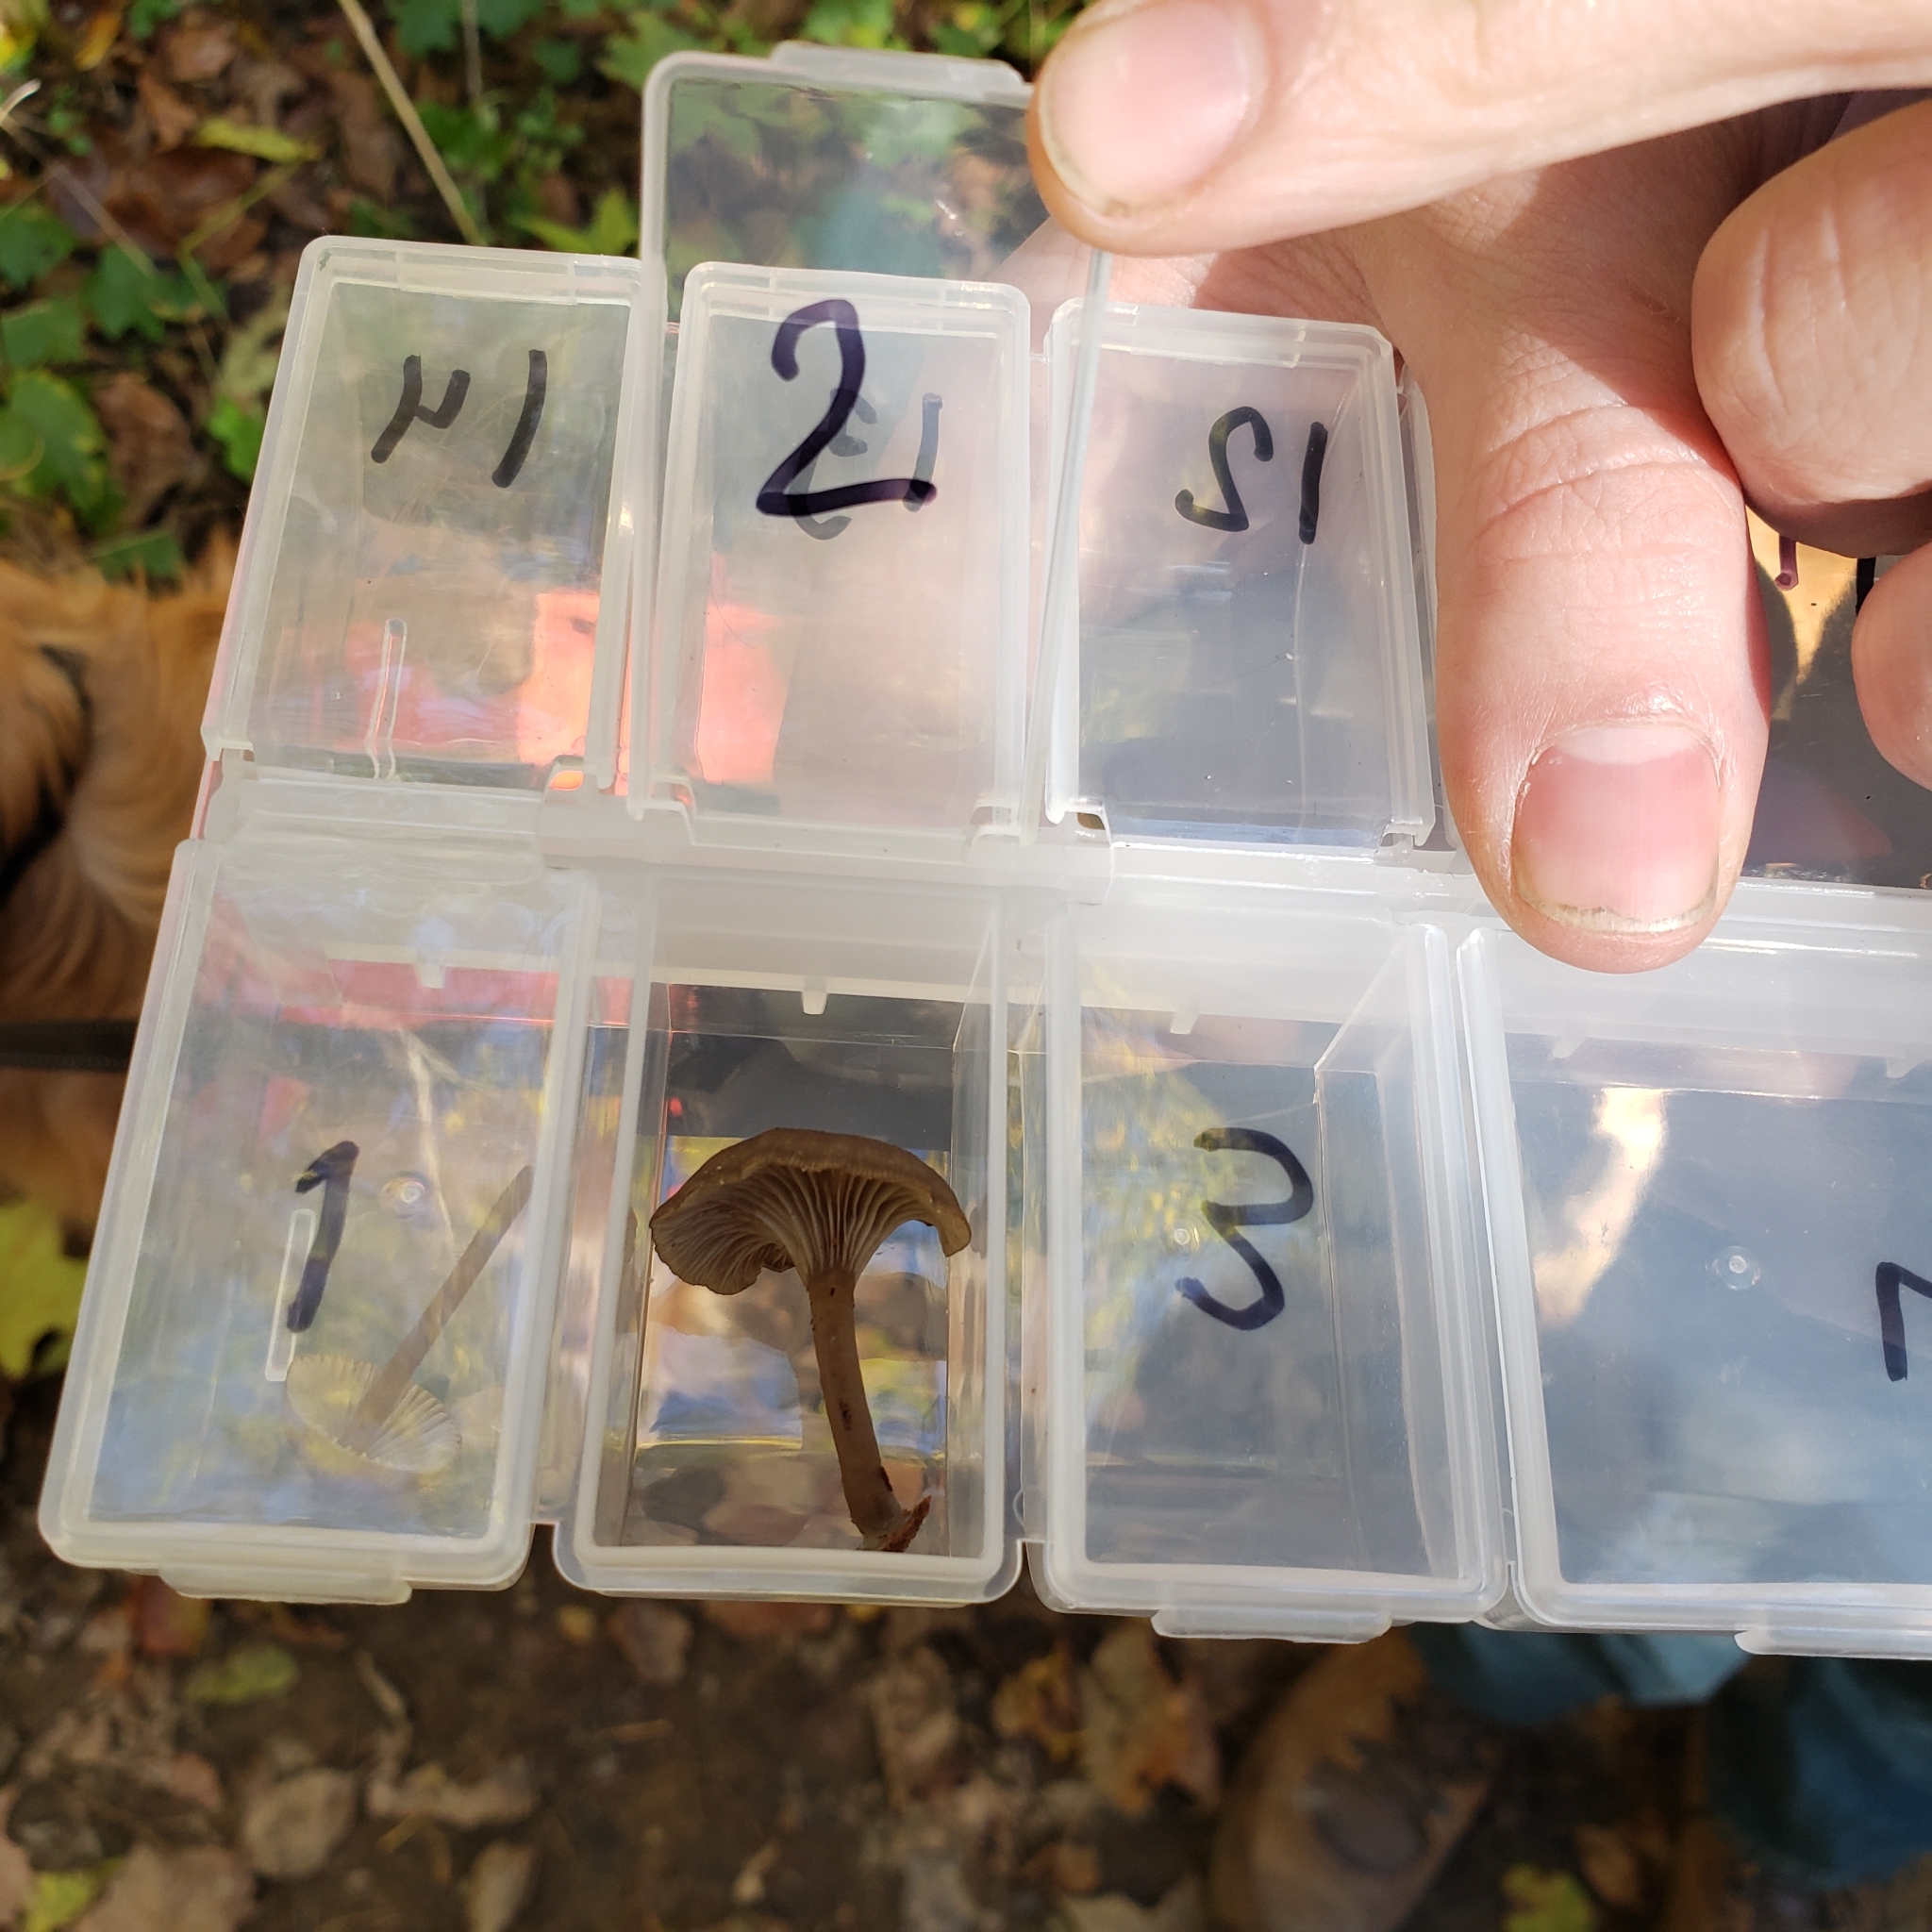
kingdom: Fungi
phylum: Basidiomycota
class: Agaricomycetes
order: Agaricales
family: Hygrophoraceae
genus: Arrhenia
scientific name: Arrhenia epichysium
